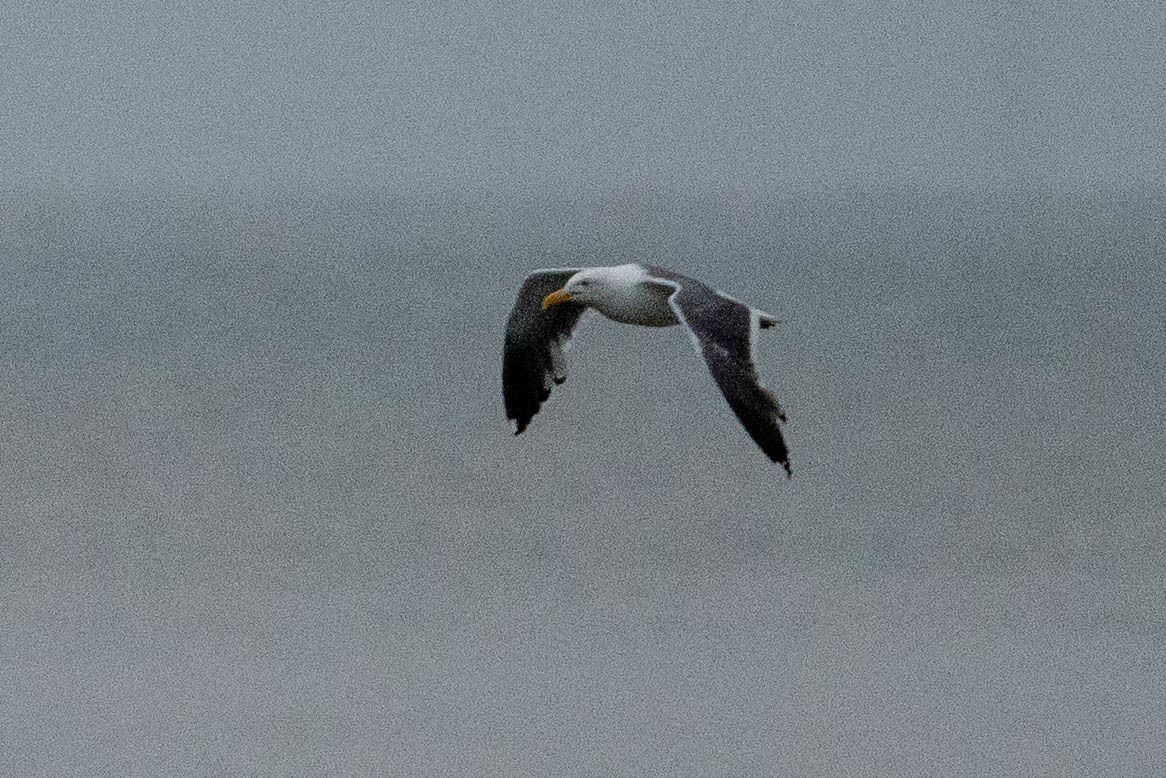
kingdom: Animalia
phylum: Chordata
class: Aves
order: Charadriiformes
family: Laridae
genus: Larus
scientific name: Larus occidentalis
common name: Western gull
